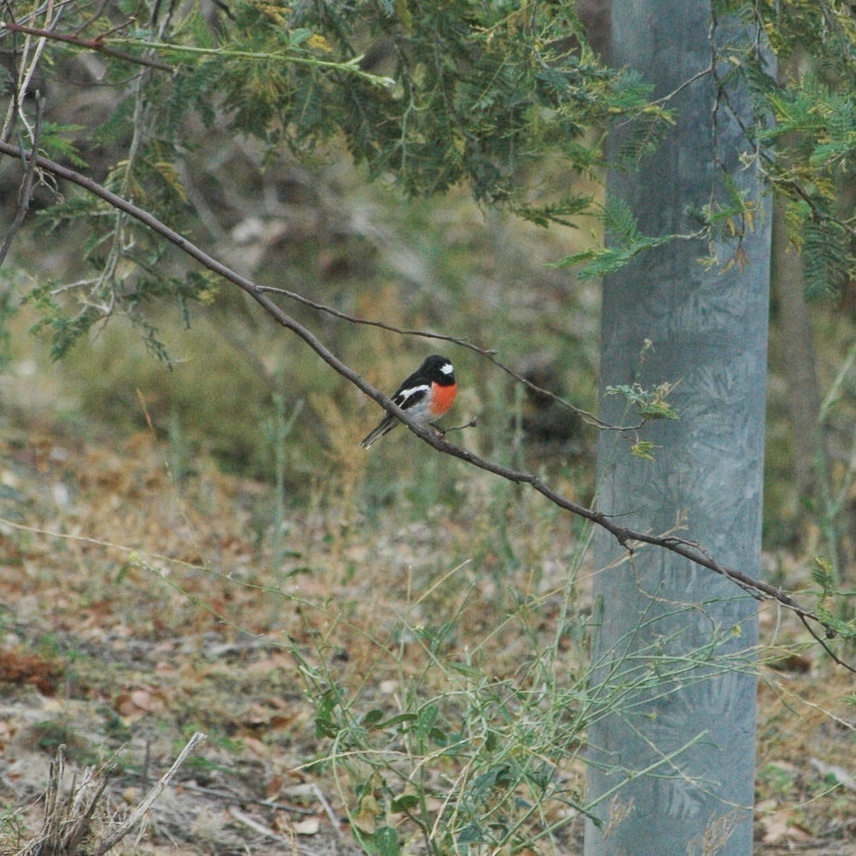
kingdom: Animalia
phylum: Chordata
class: Aves
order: Passeriformes
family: Petroicidae
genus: Petroica
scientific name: Petroica boodang
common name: Scarlet robin
